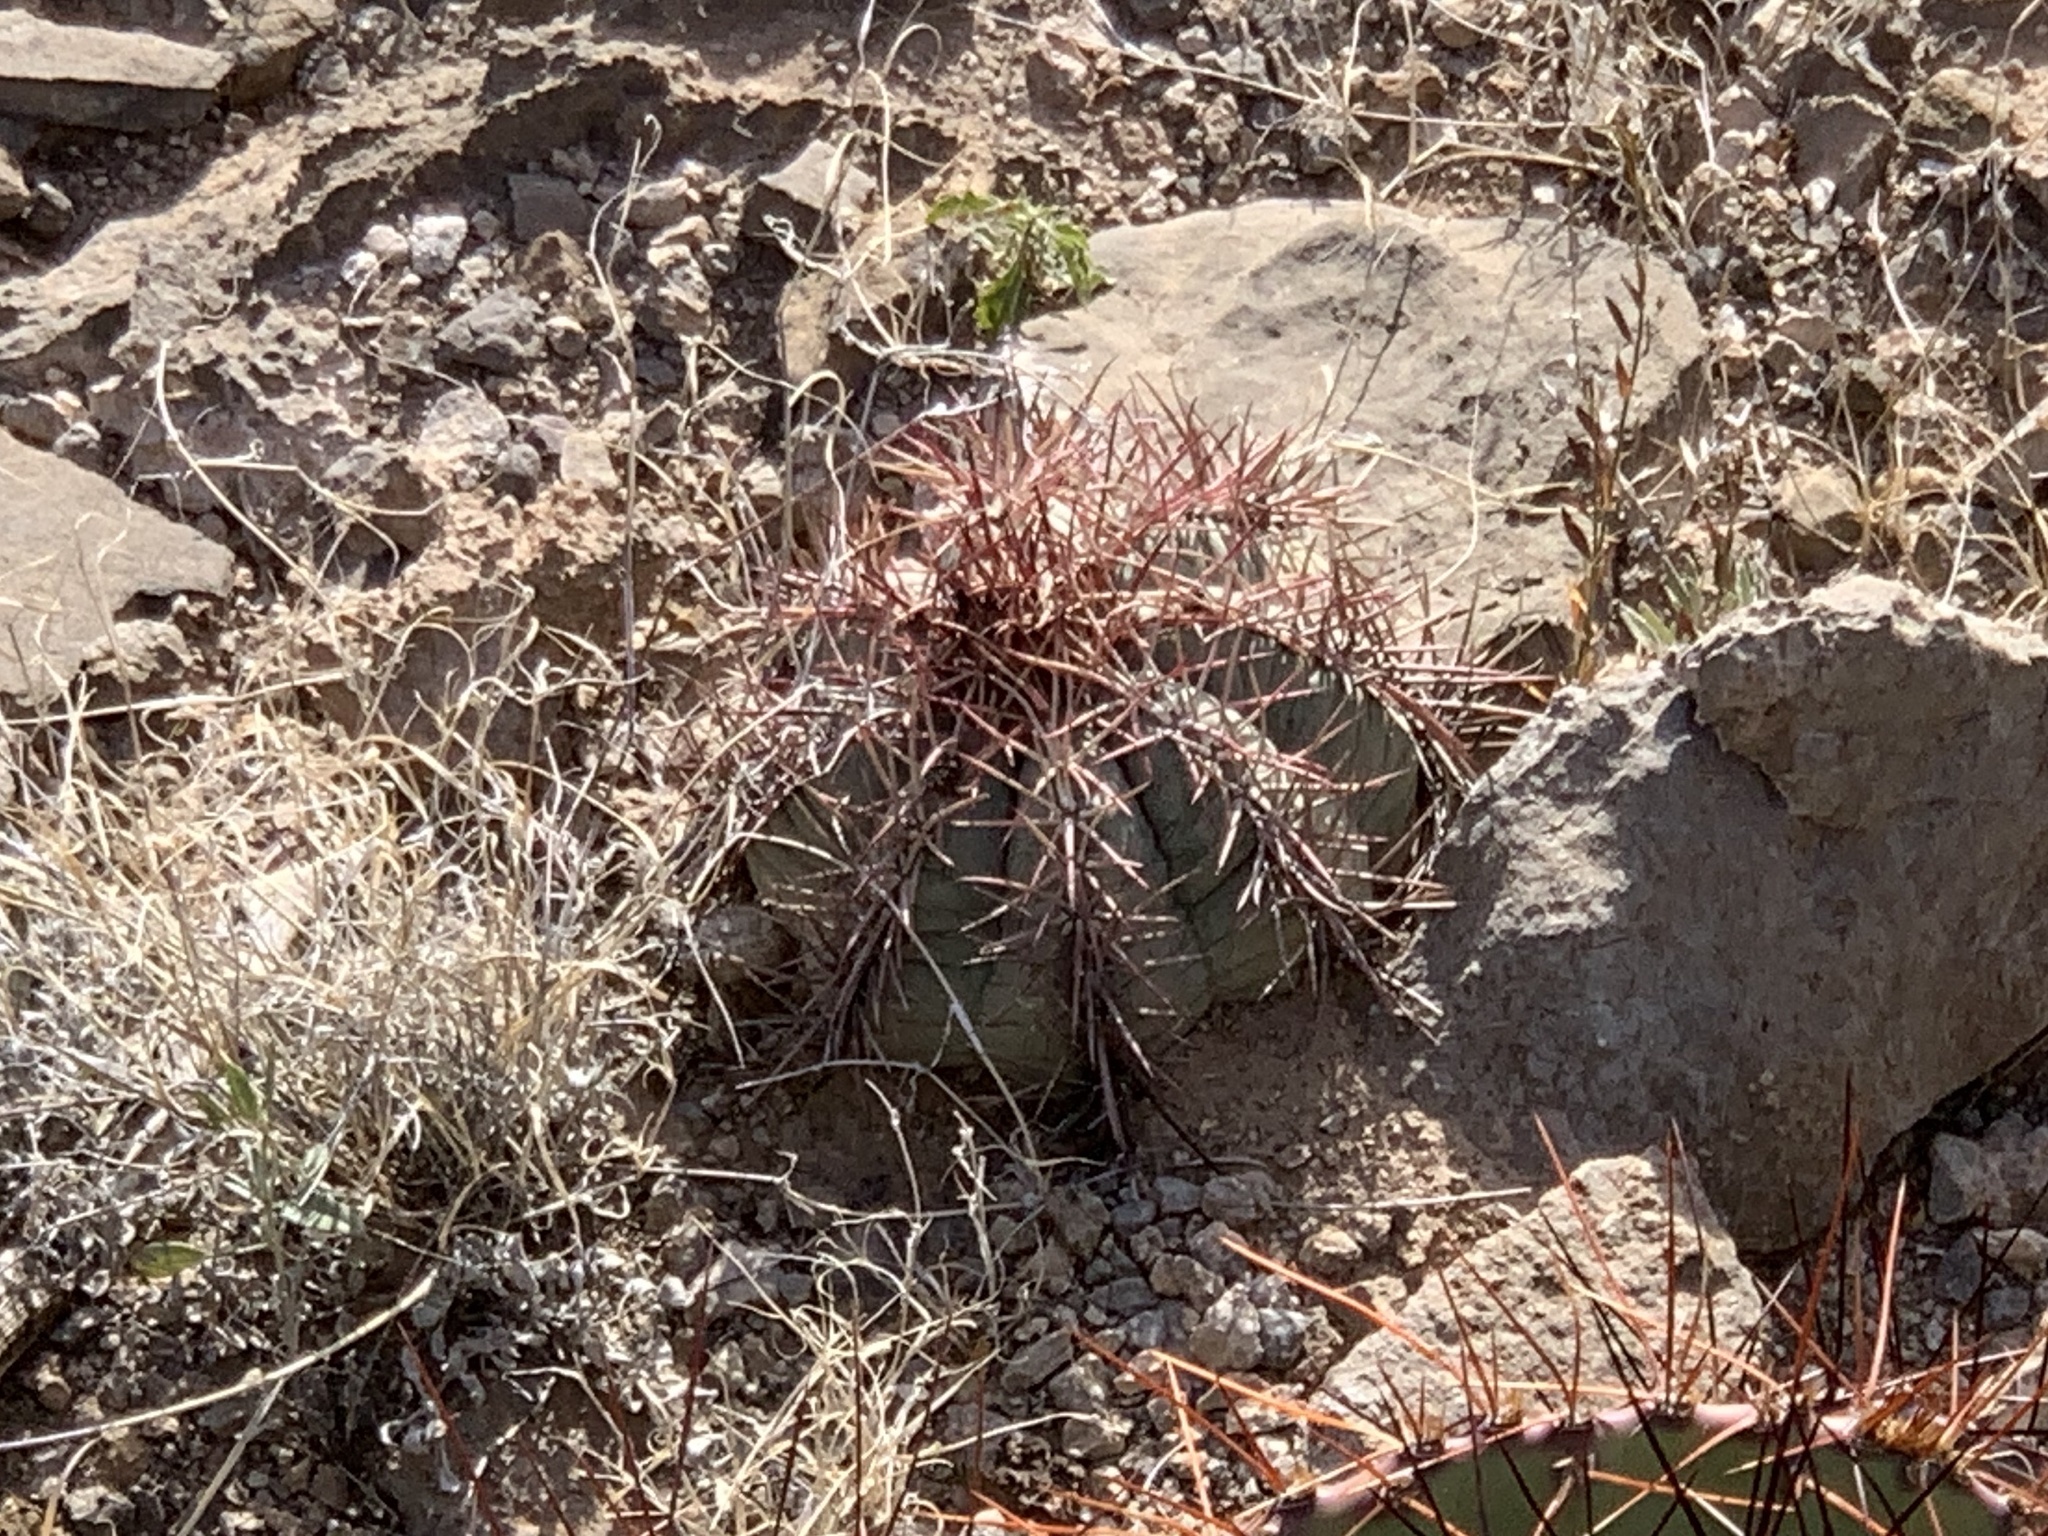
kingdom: Plantae
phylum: Tracheophyta
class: Magnoliopsida
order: Caryophyllales
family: Cactaceae
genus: Echinocactus
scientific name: Echinocactus horizonthalonius
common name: Devilshead
